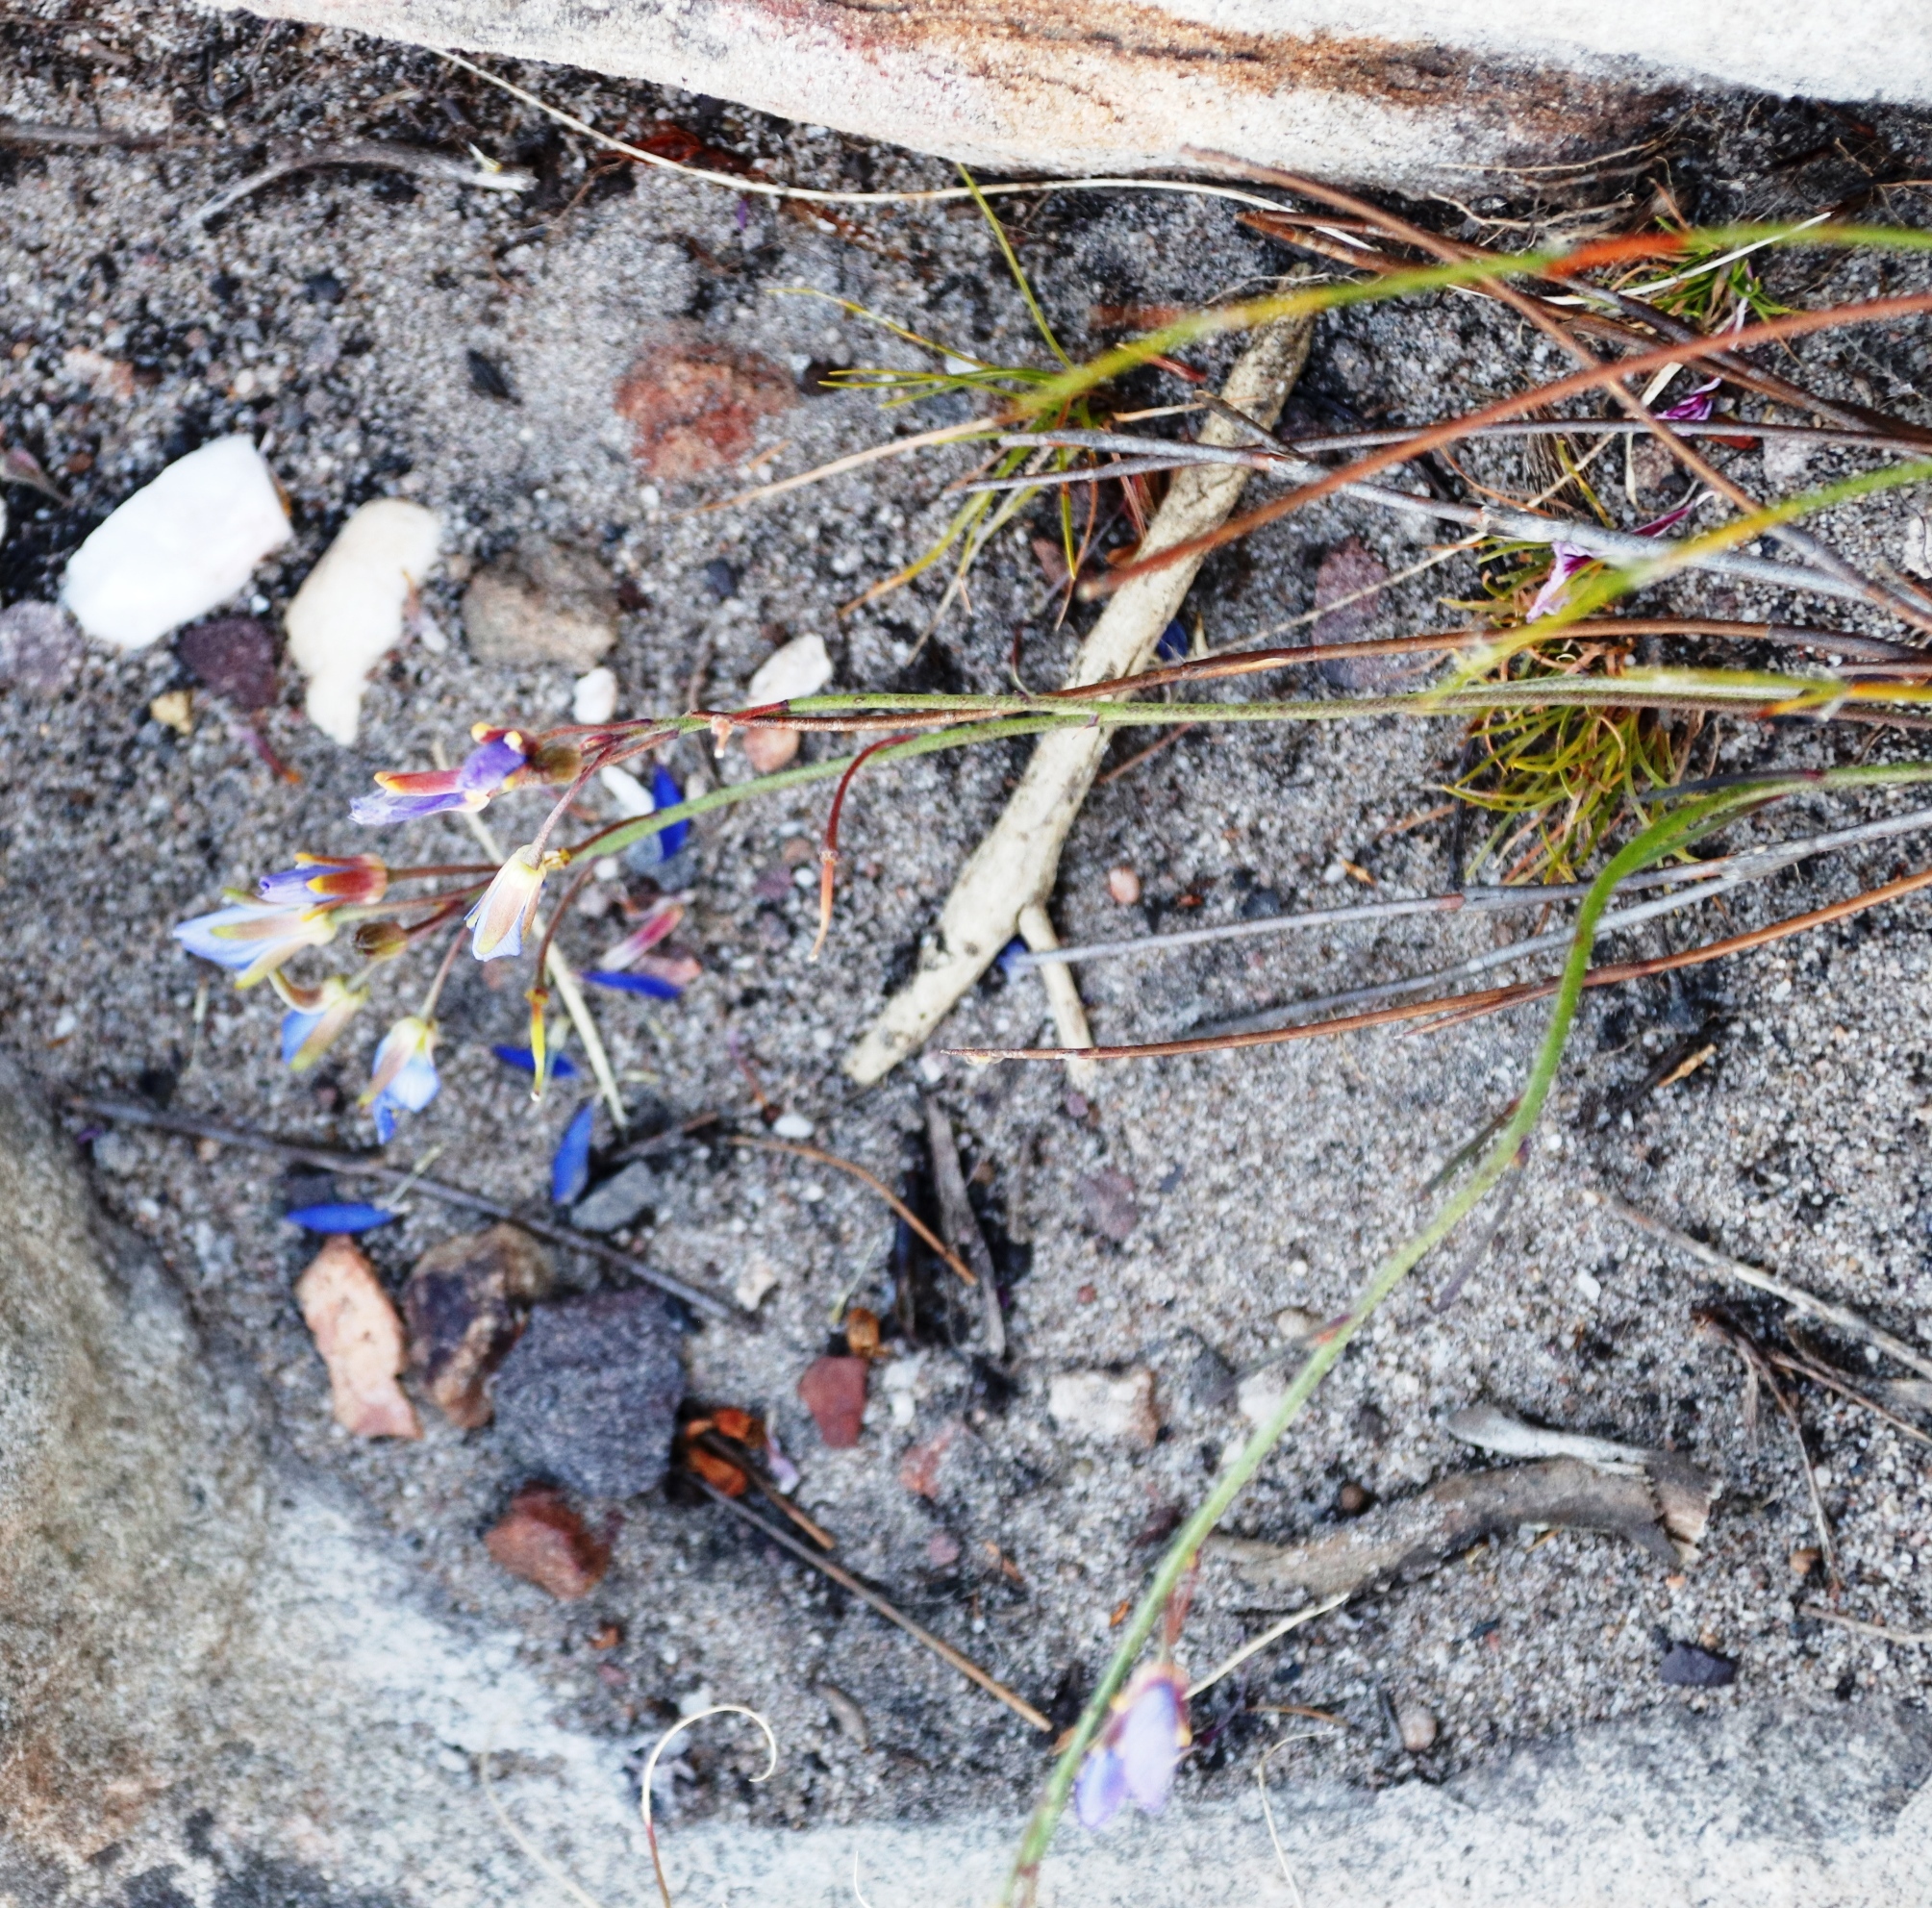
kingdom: Plantae
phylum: Tracheophyta
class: Magnoliopsida
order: Brassicales
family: Brassicaceae
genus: Heliophila
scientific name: Heliophila linearis
